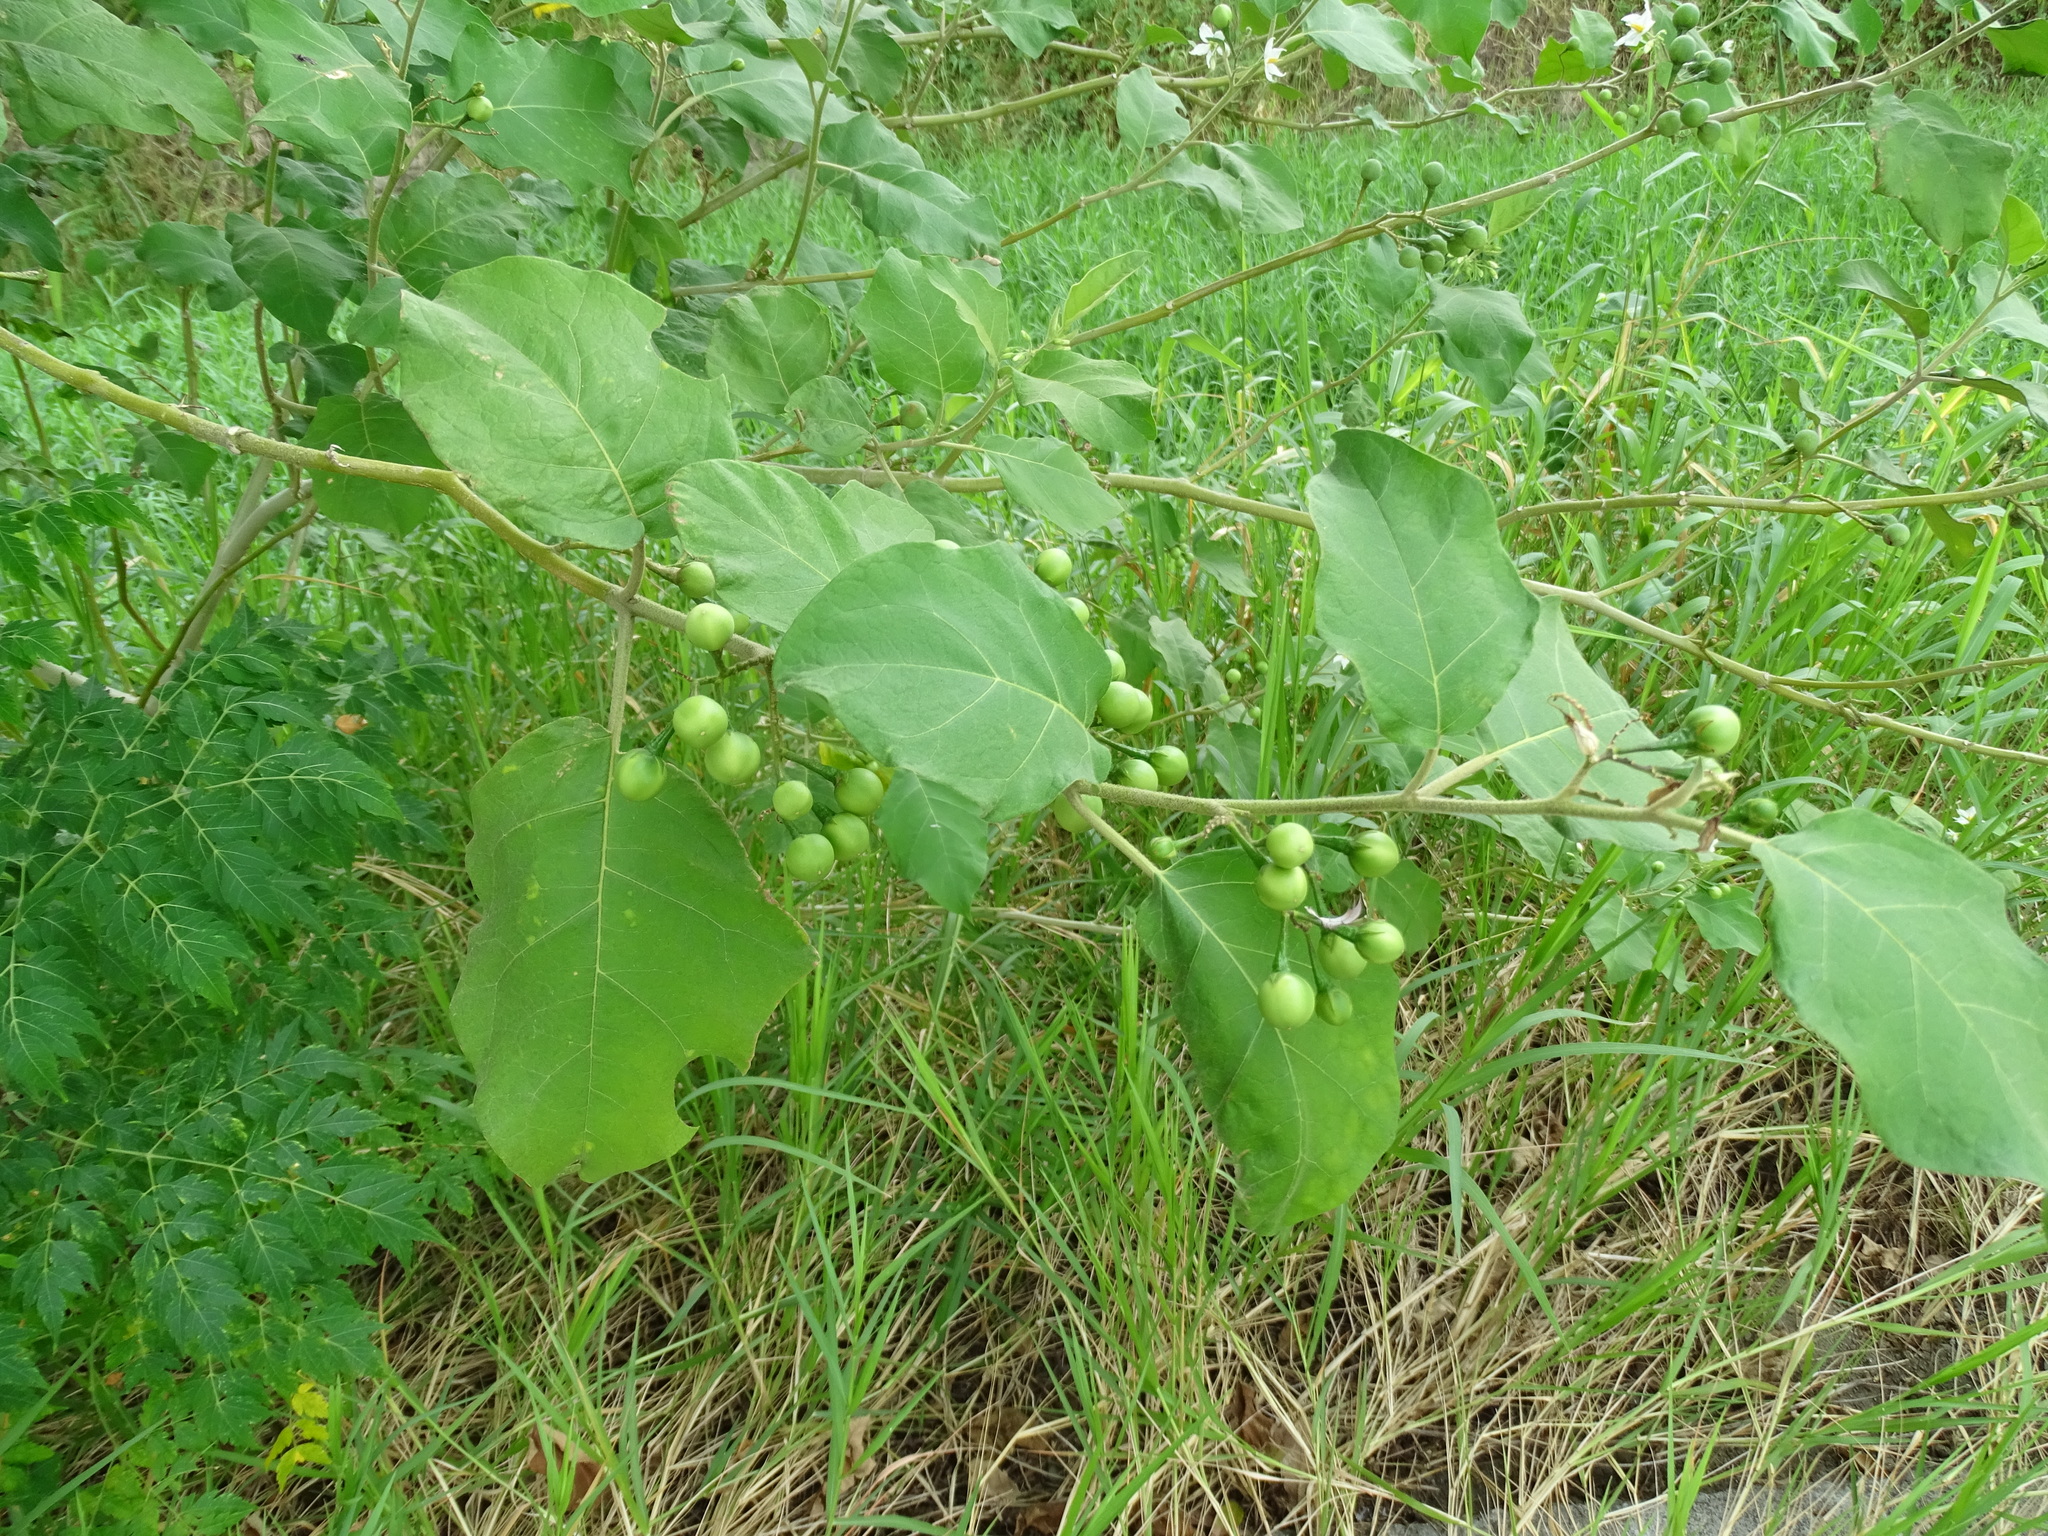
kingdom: Plantae
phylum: Tracheophyta
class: Magnoliopsida
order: Solanales
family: Solanaceae
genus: Solanum
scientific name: Solanum torvum
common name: Turkey berry
